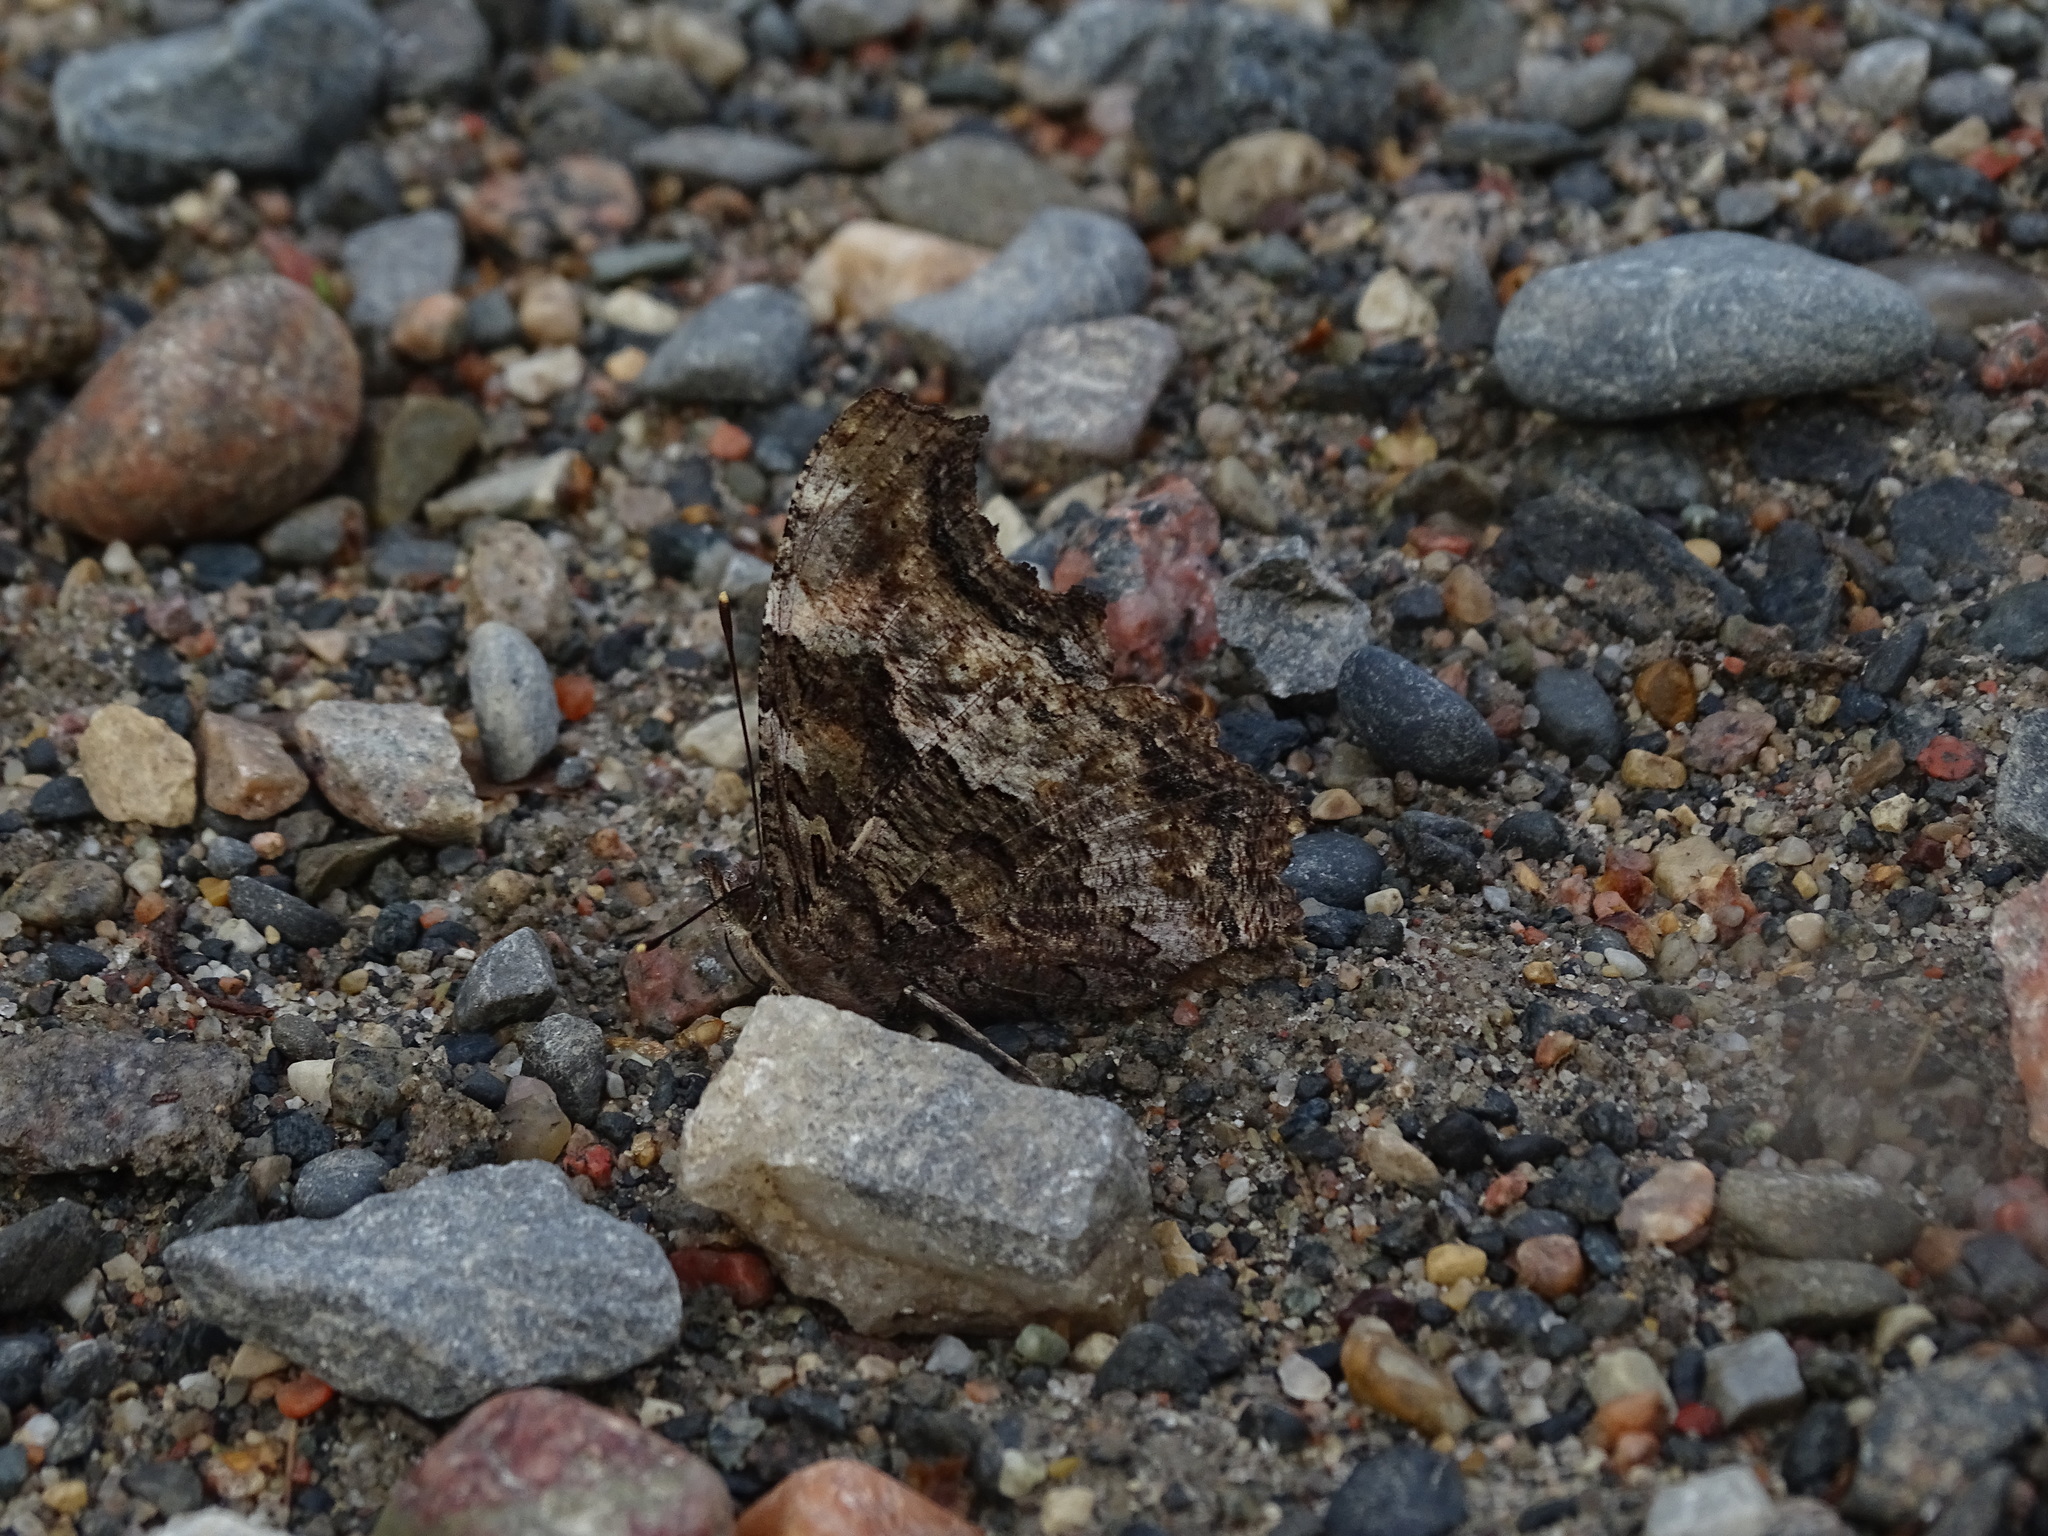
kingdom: Animalia
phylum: Arthropoda
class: Insecta
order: Lepidoptera
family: Nymphalidae
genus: Polygonia
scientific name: Polygonia vaualbum
